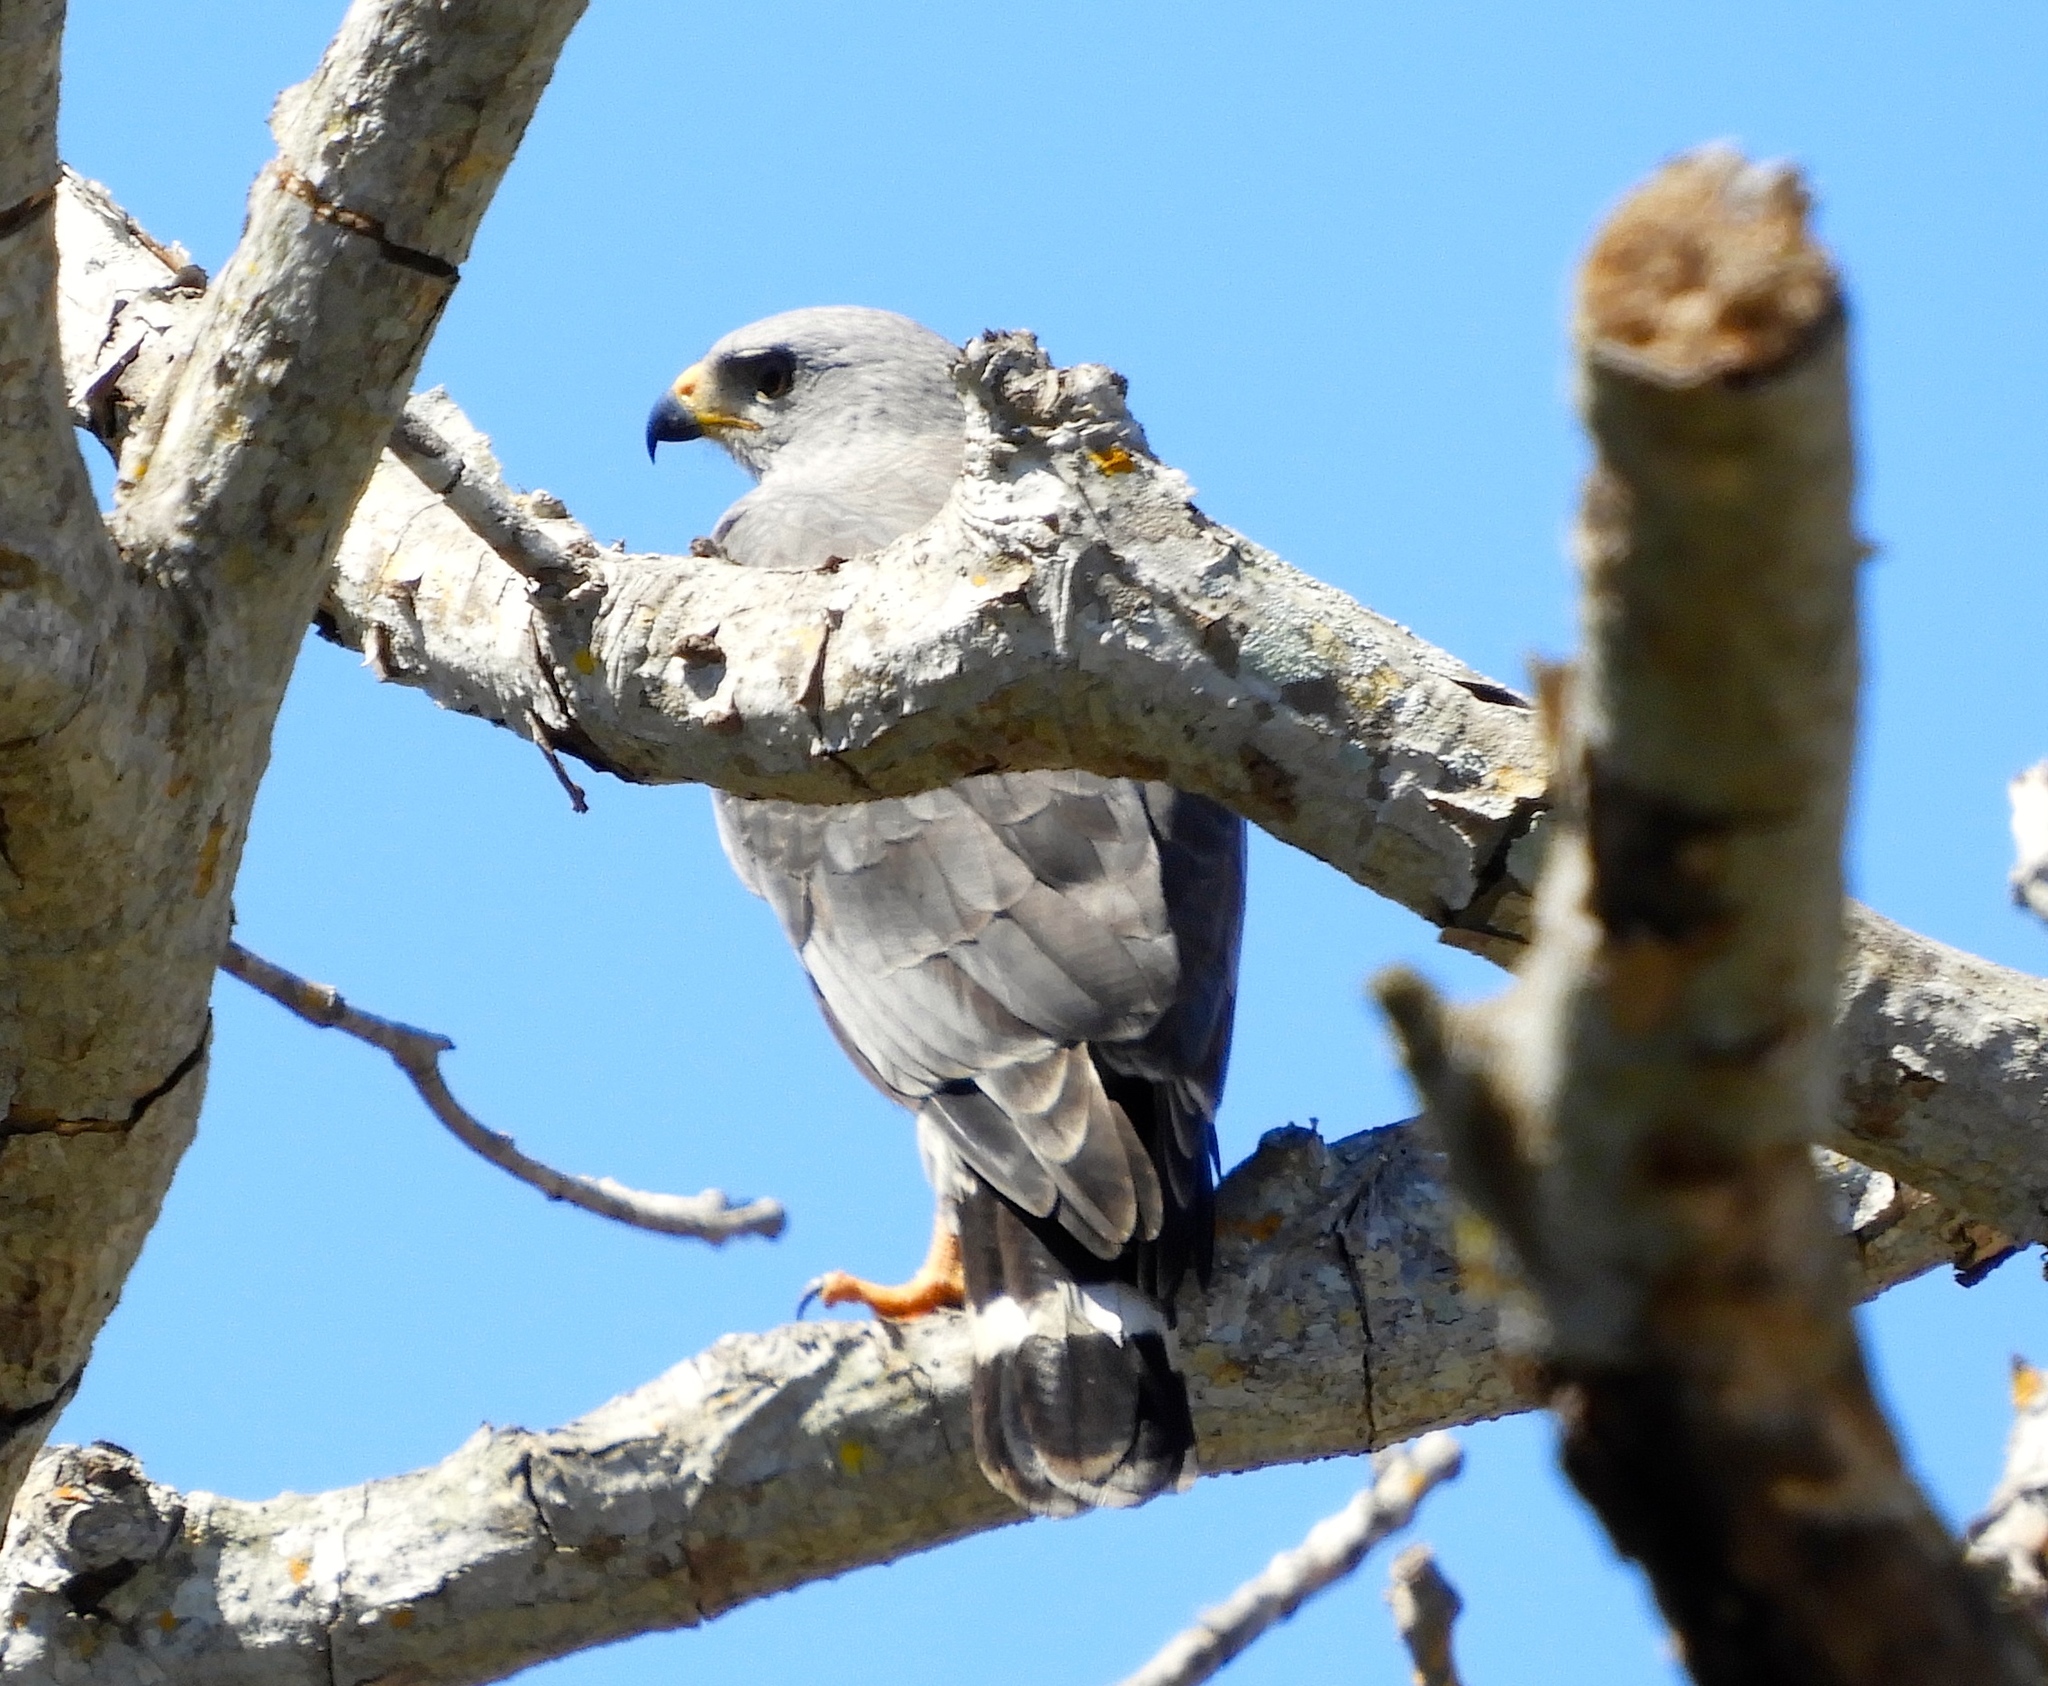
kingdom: Animalia
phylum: Chordata
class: Aves
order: Accipitriformes
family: Accipitridae
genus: Buteo
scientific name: Buteo nitidus
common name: Grey-lined hawk
